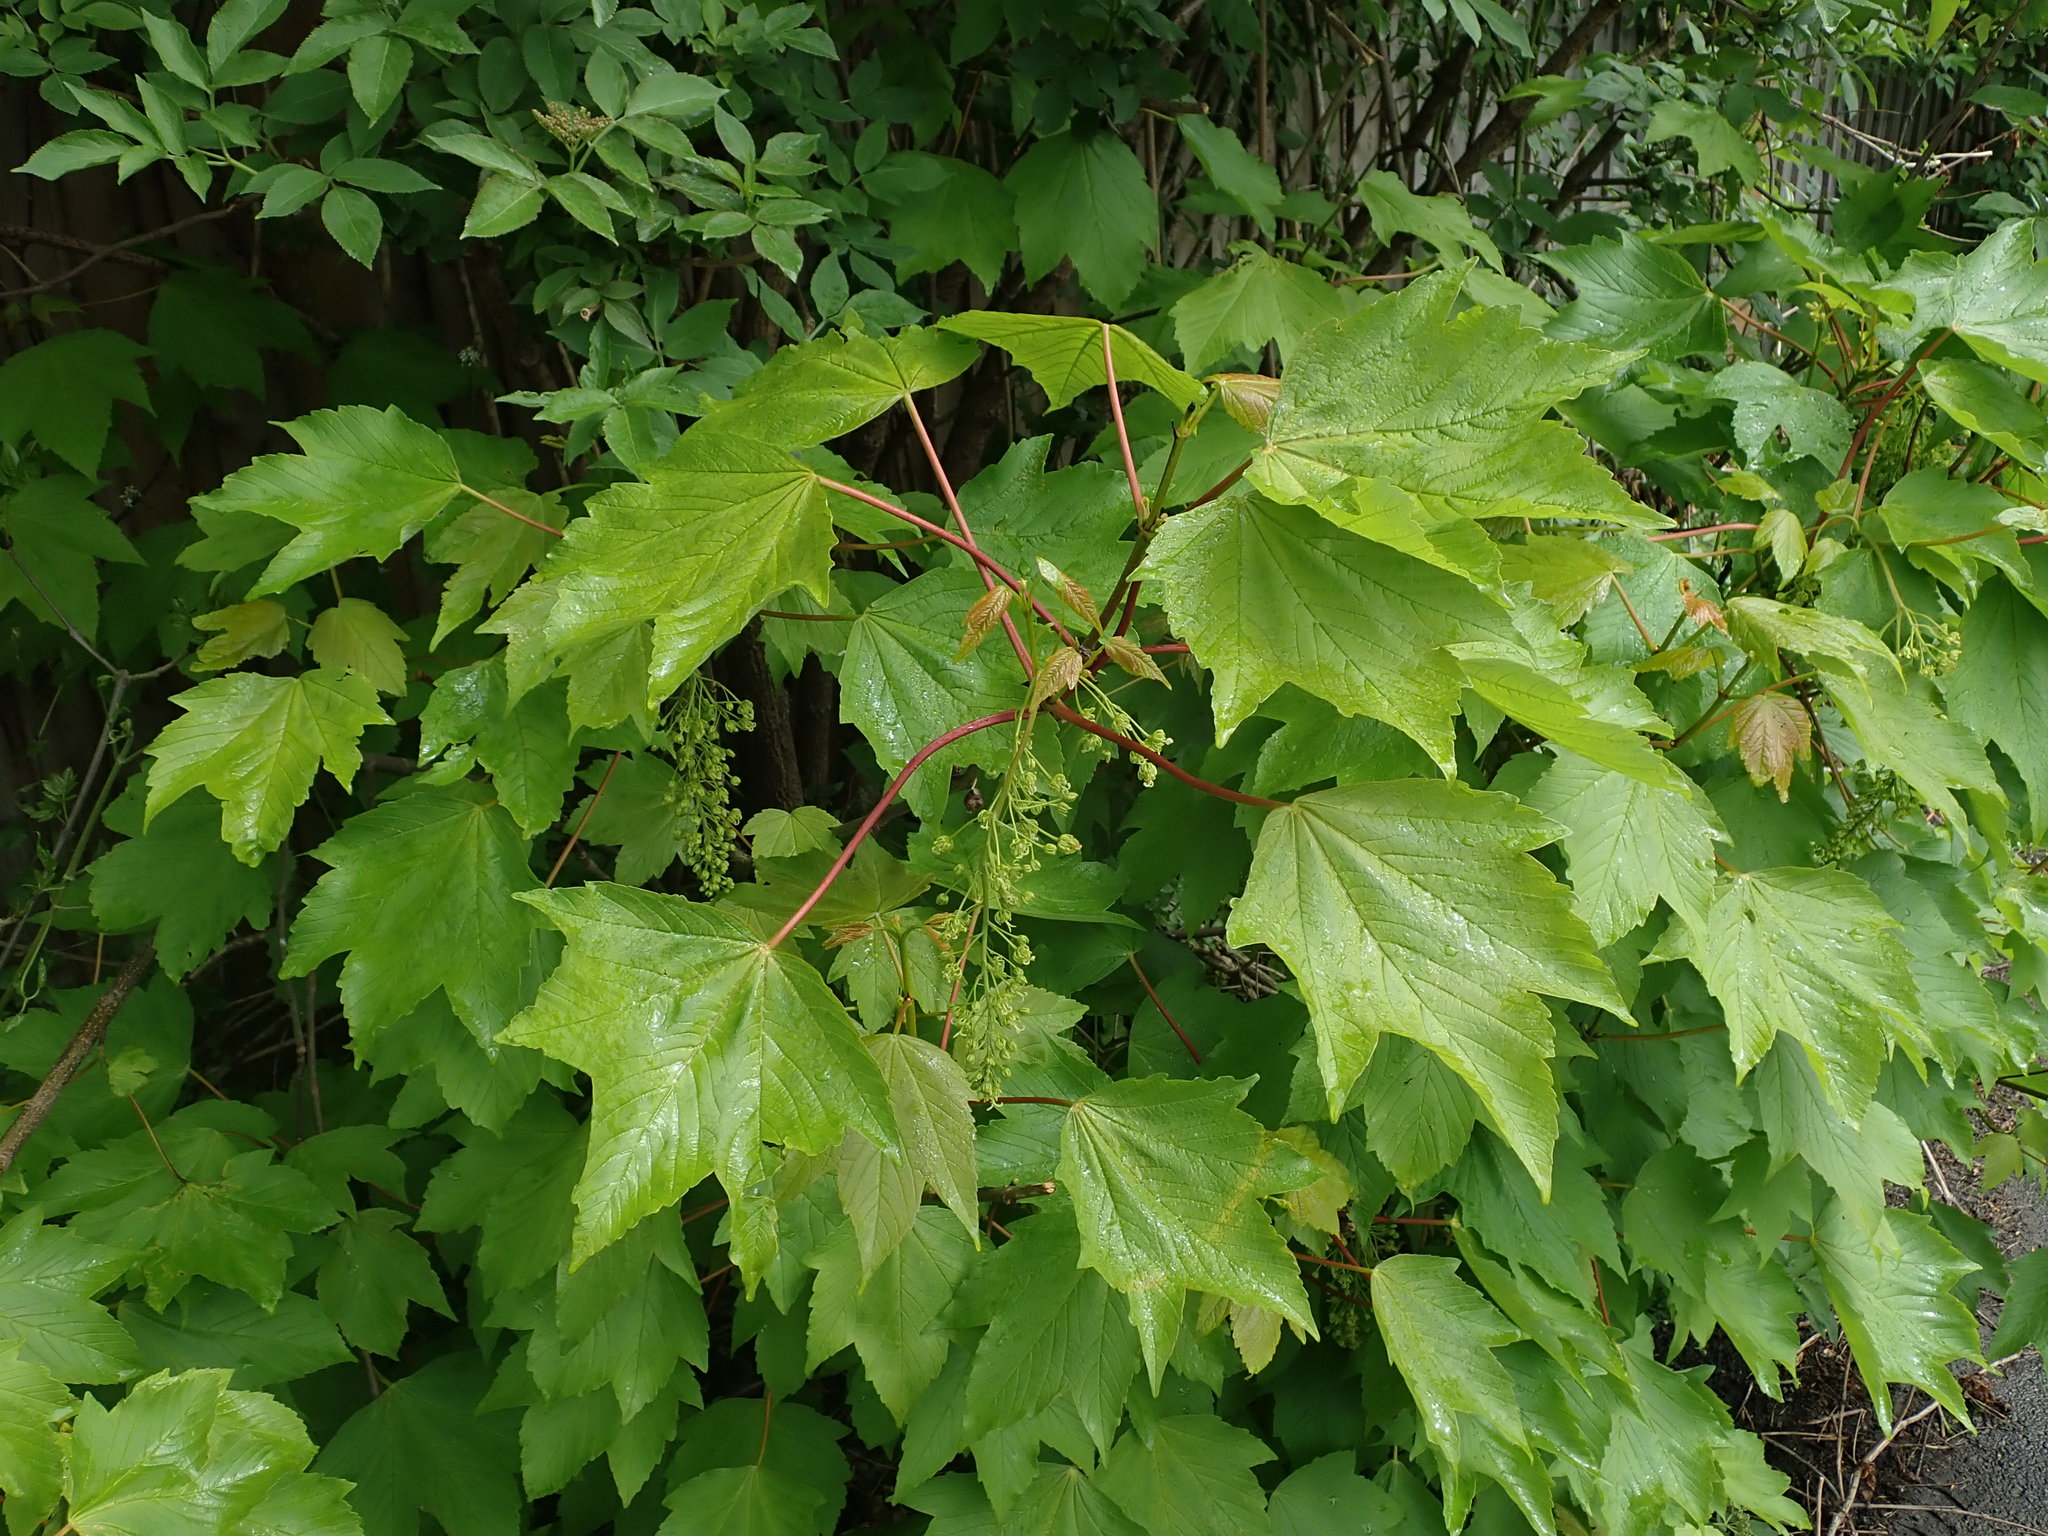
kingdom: Plantae
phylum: Tracheophyta
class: Magnoliopsida
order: Sapindales
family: Sapindaceae
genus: Acer
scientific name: Acer pseudoplatanus
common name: Sycamore
